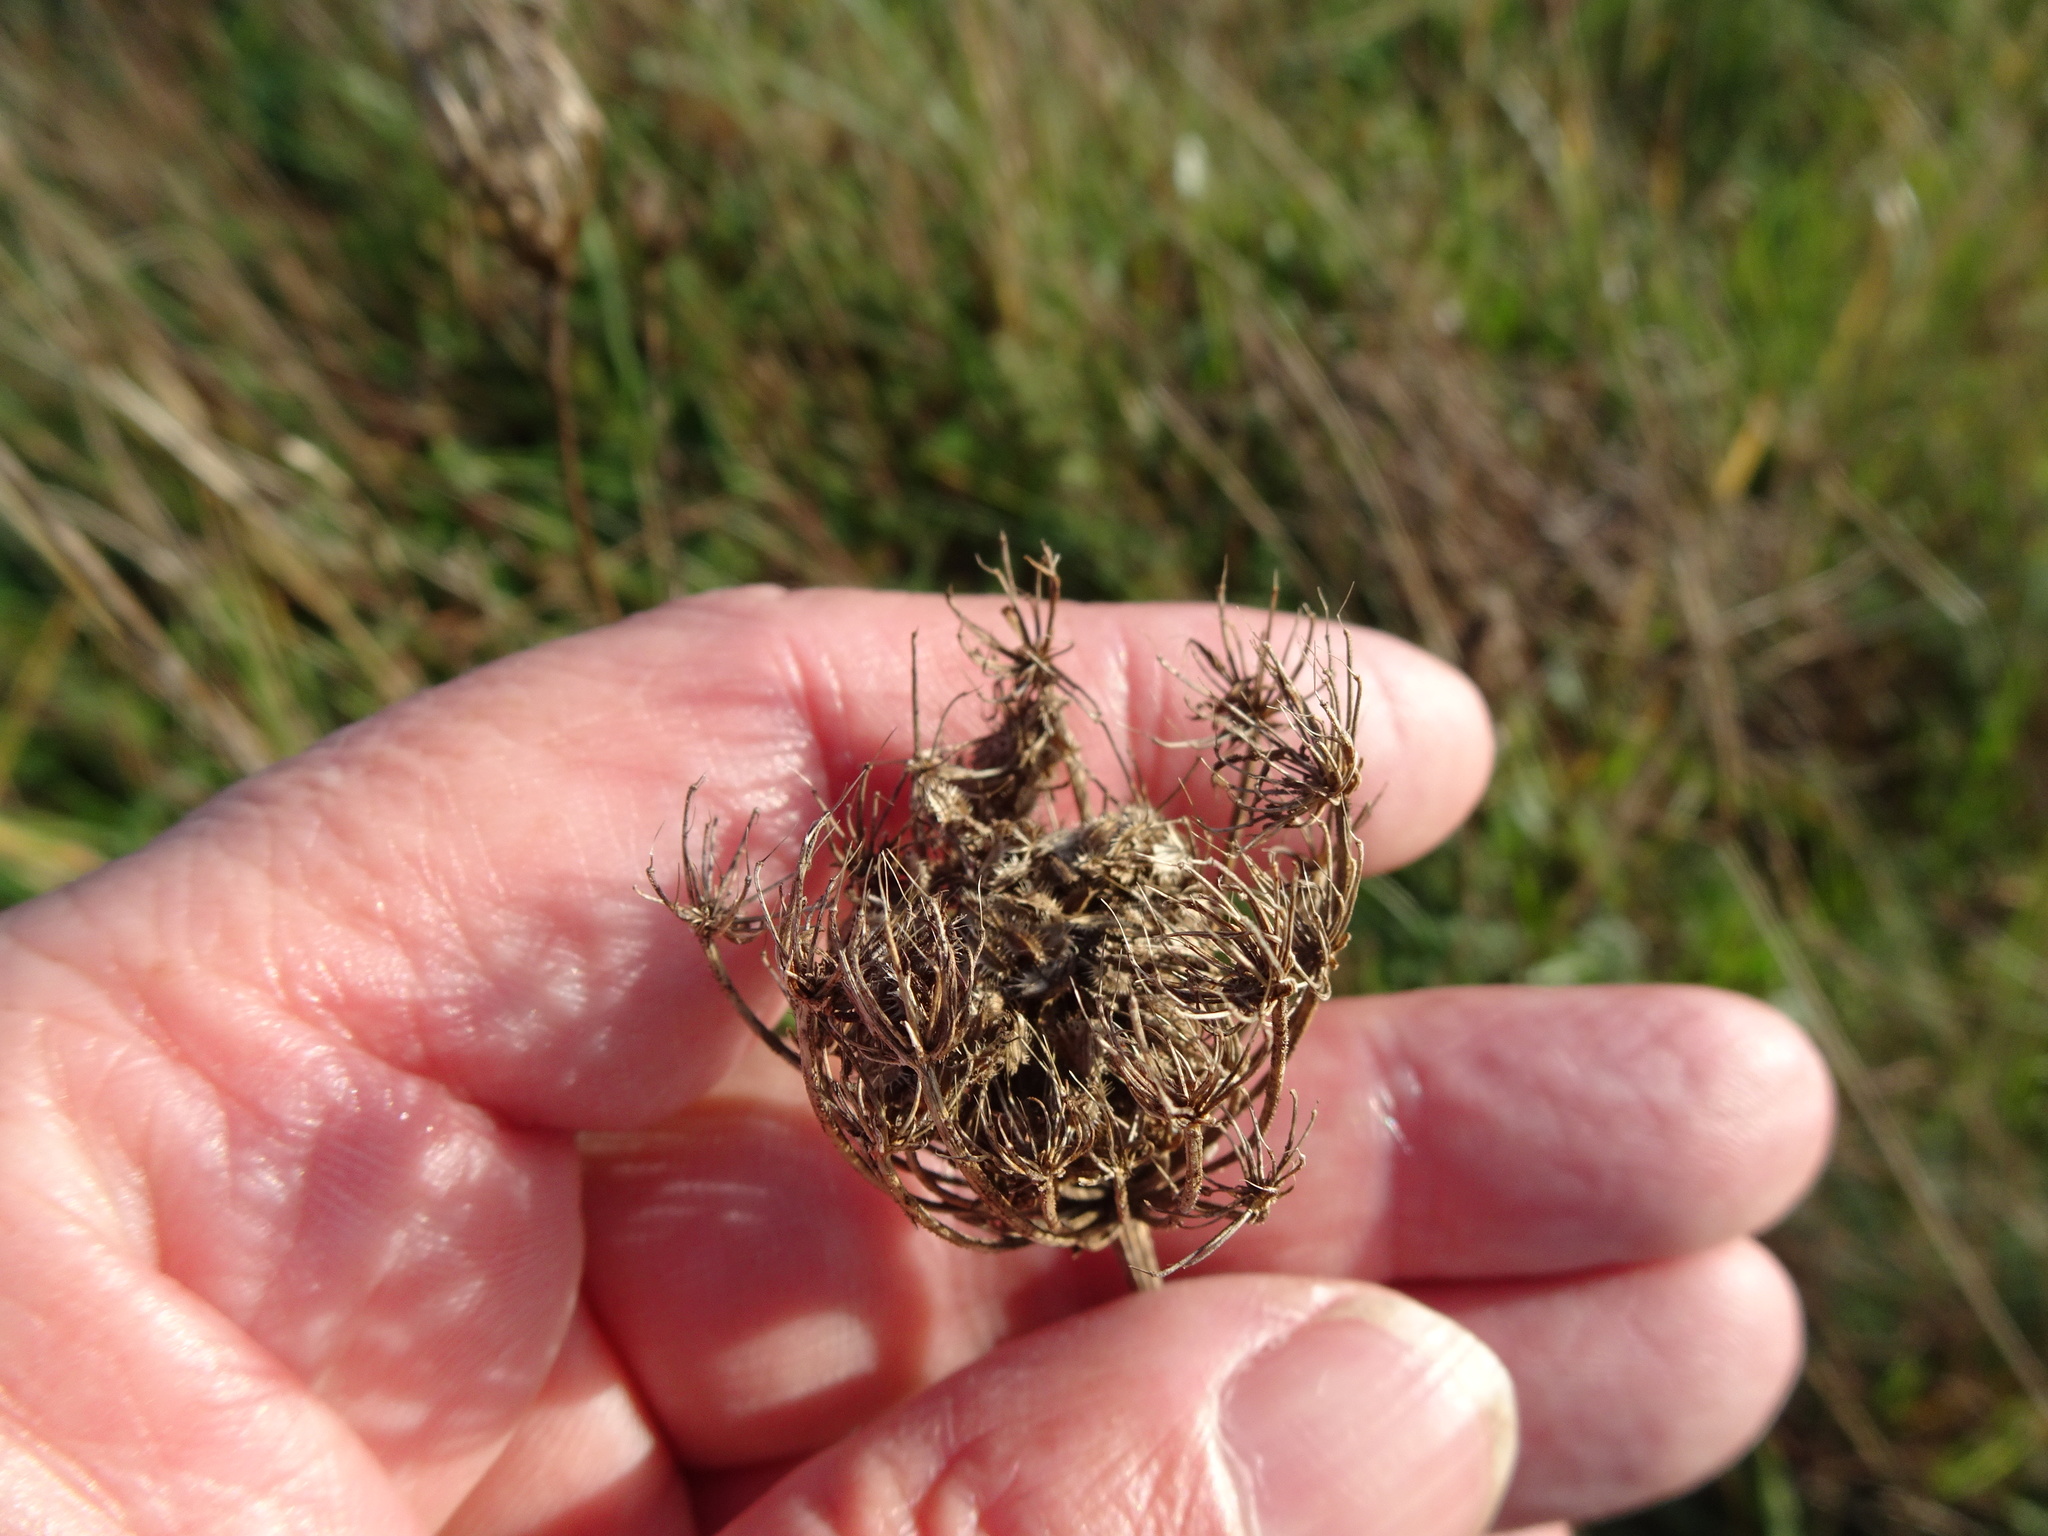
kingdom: Plantae
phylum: Tracheophyta
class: Magnoliopsida
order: Apiales
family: Apiaceae
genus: Daucus
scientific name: Daucus carota
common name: Wild carrot
